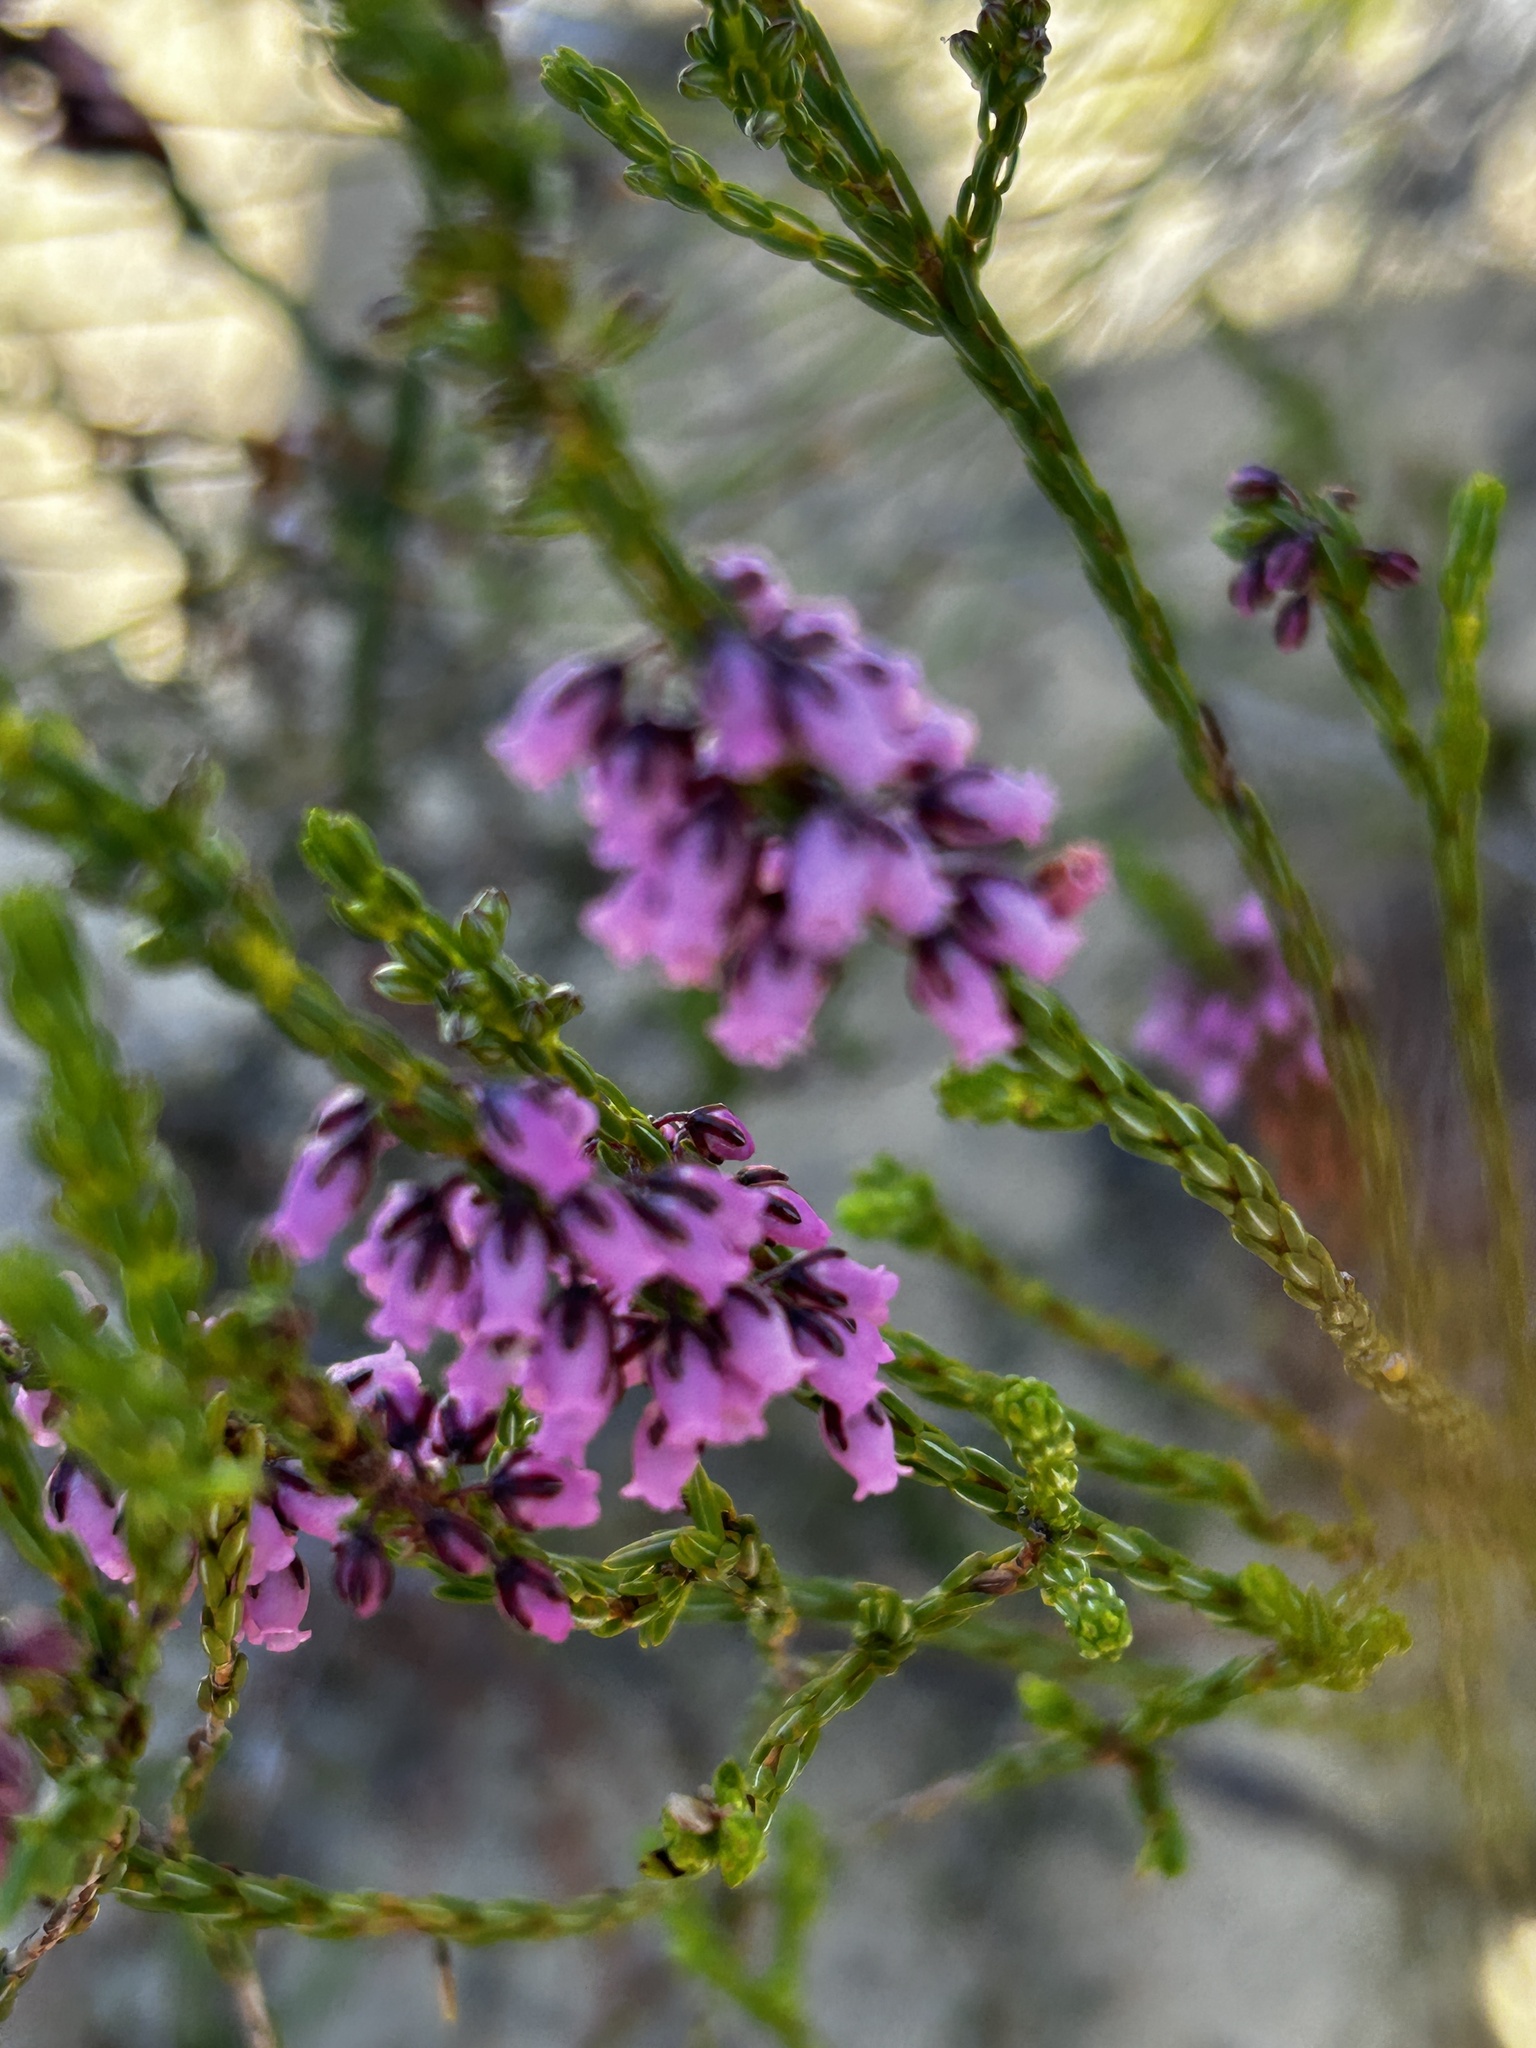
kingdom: Plantae
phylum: Tracheophyta
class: Magnoliopsida
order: Ericales
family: Ericaceae
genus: Erica
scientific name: Erica curtophylla
